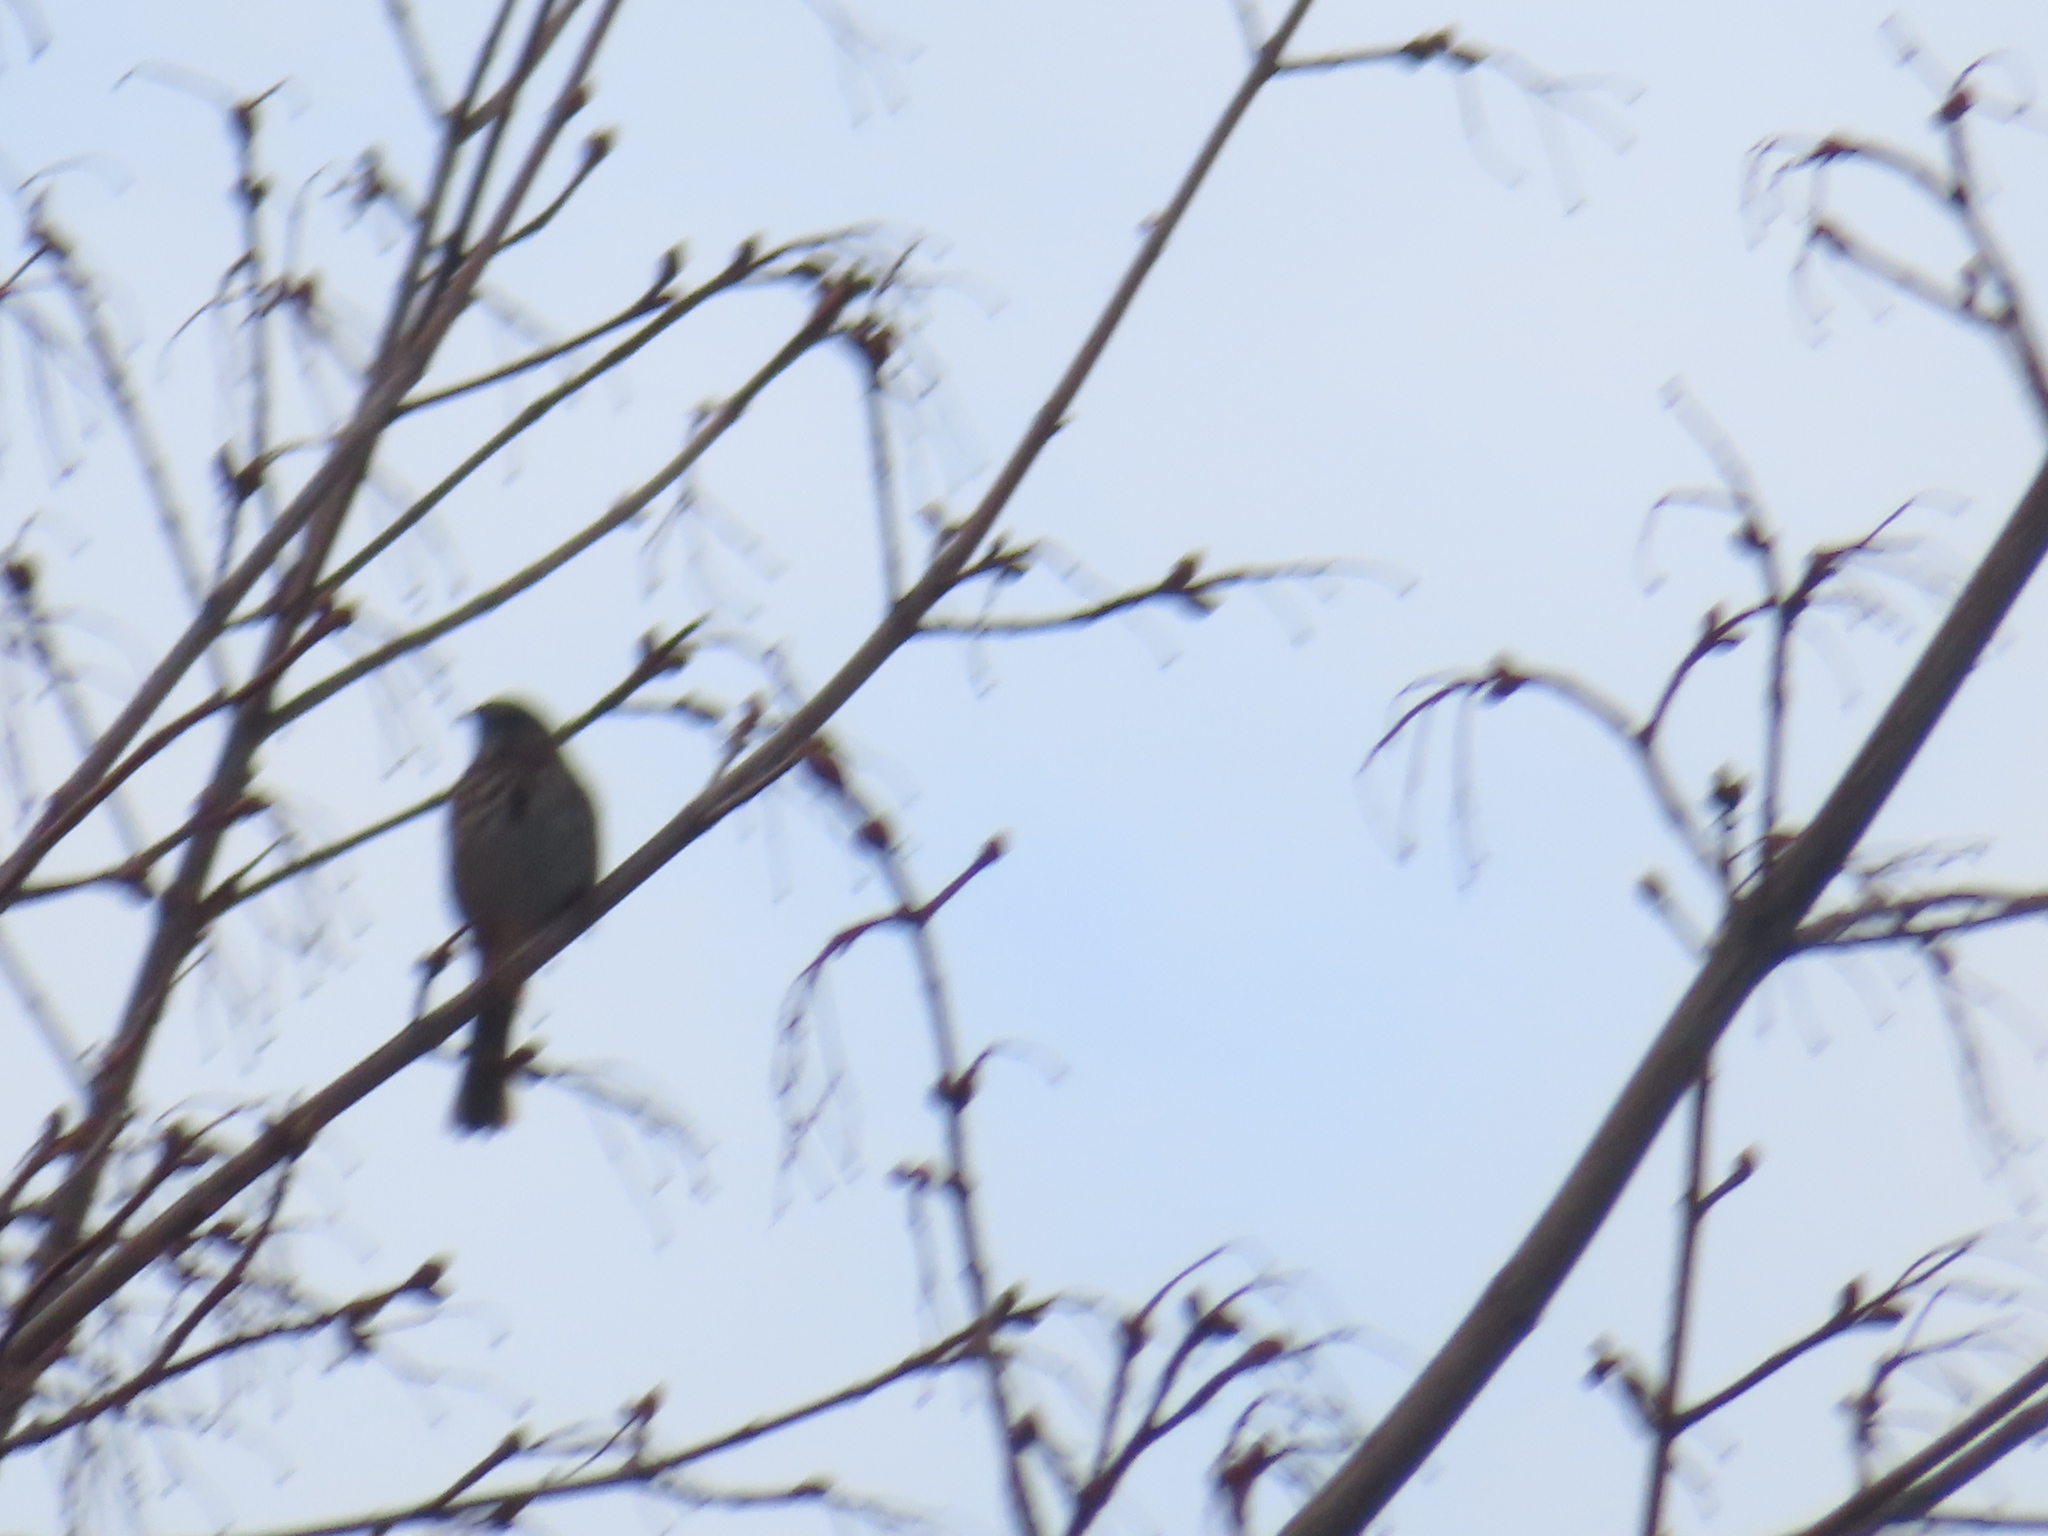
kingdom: Animalia
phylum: Chordata
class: Aves
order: Passeriformes
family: Passerellidae
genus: Melospiza
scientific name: Melospiza melodia
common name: Song sparrow
